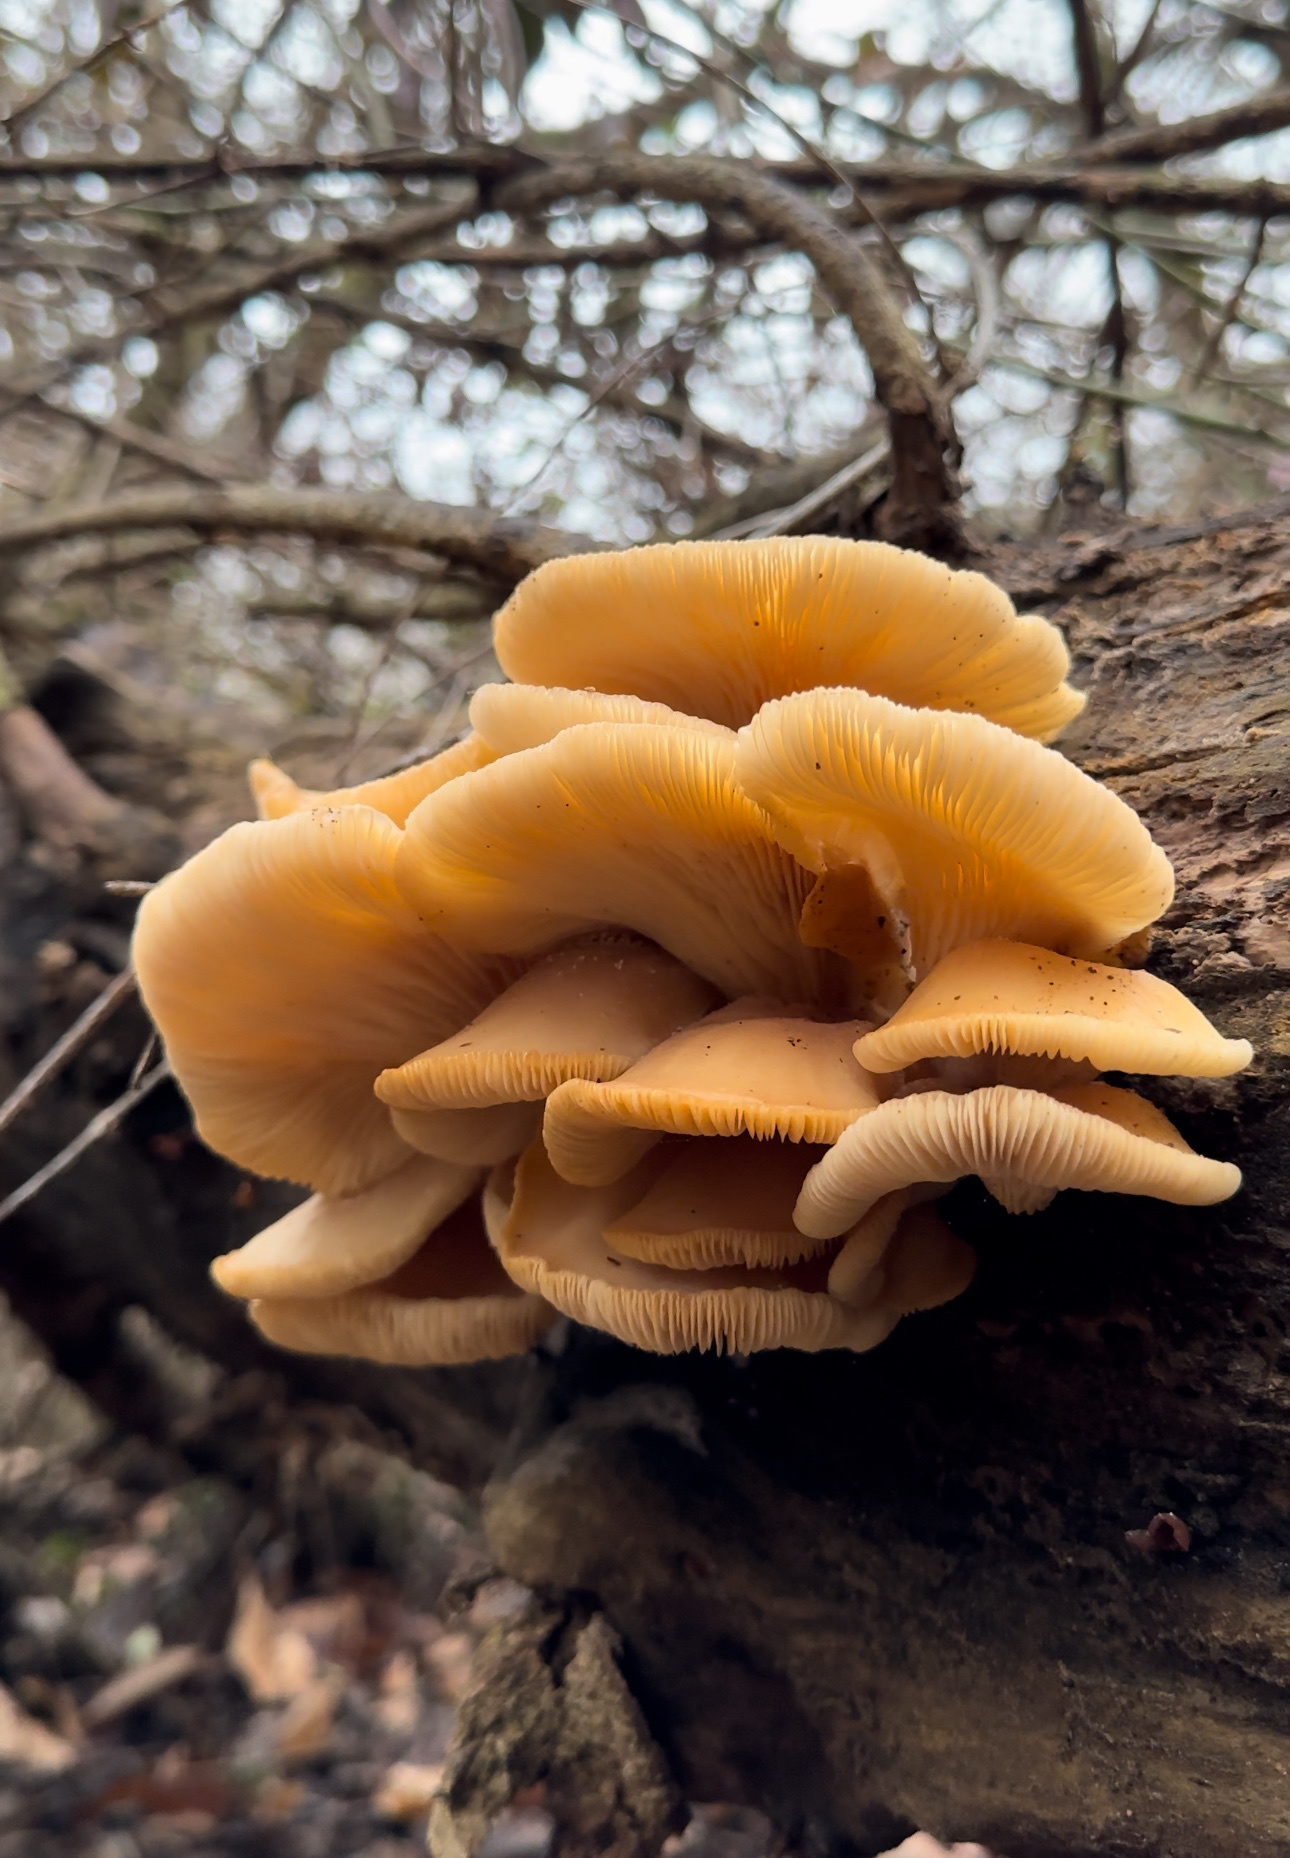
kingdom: Fungi
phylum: Basidiomycota
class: Agaricomycetes
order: Agaricales
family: Pleurotaceae
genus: Pleurotus
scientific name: Pleurotus ostreatus
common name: Oyster mushroom
